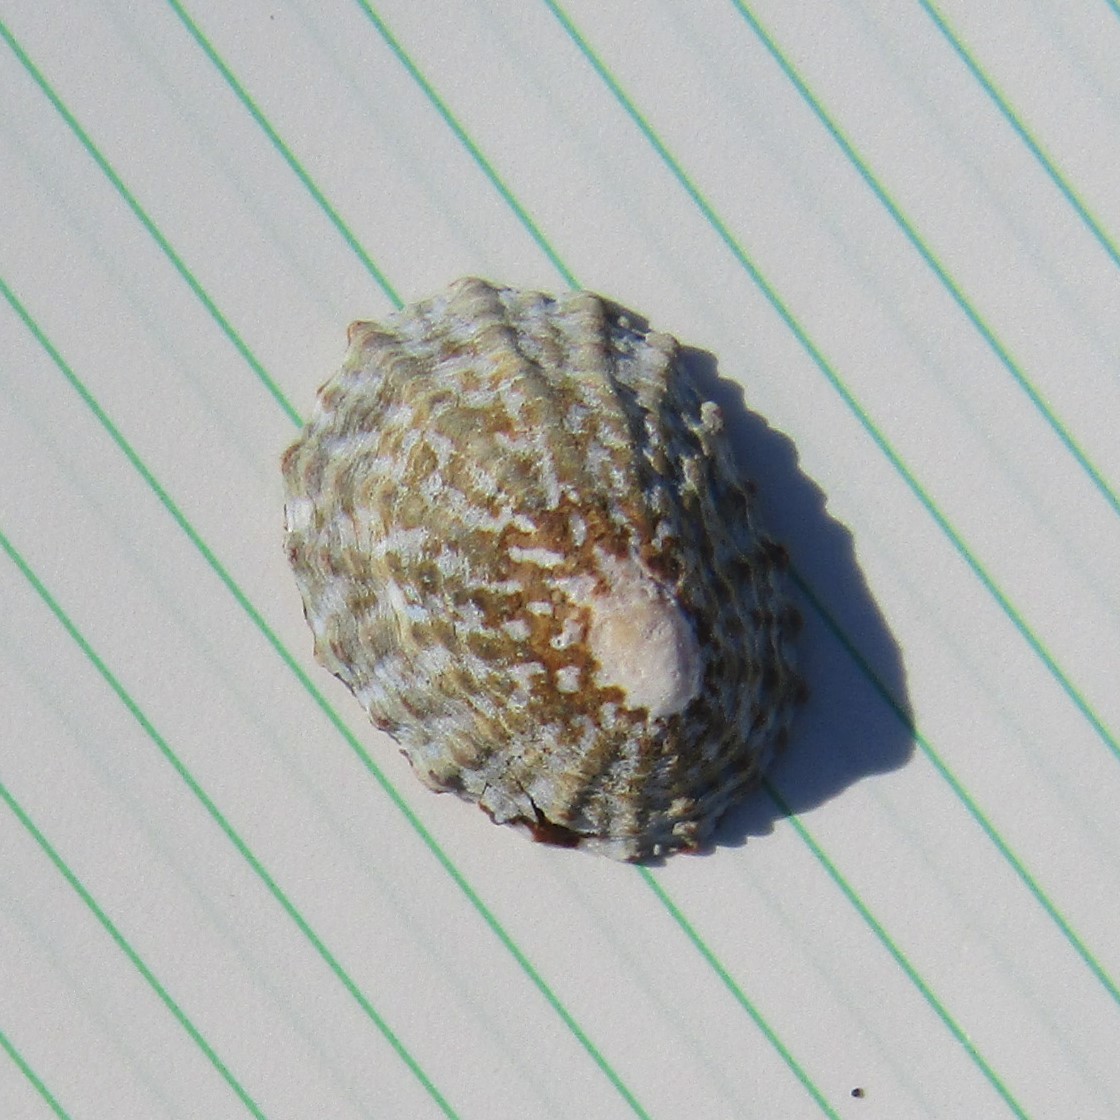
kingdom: Animalia
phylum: Mollusca
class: Gastropoda
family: Nacellidae
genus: Cellana
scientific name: Cellana denticulata
